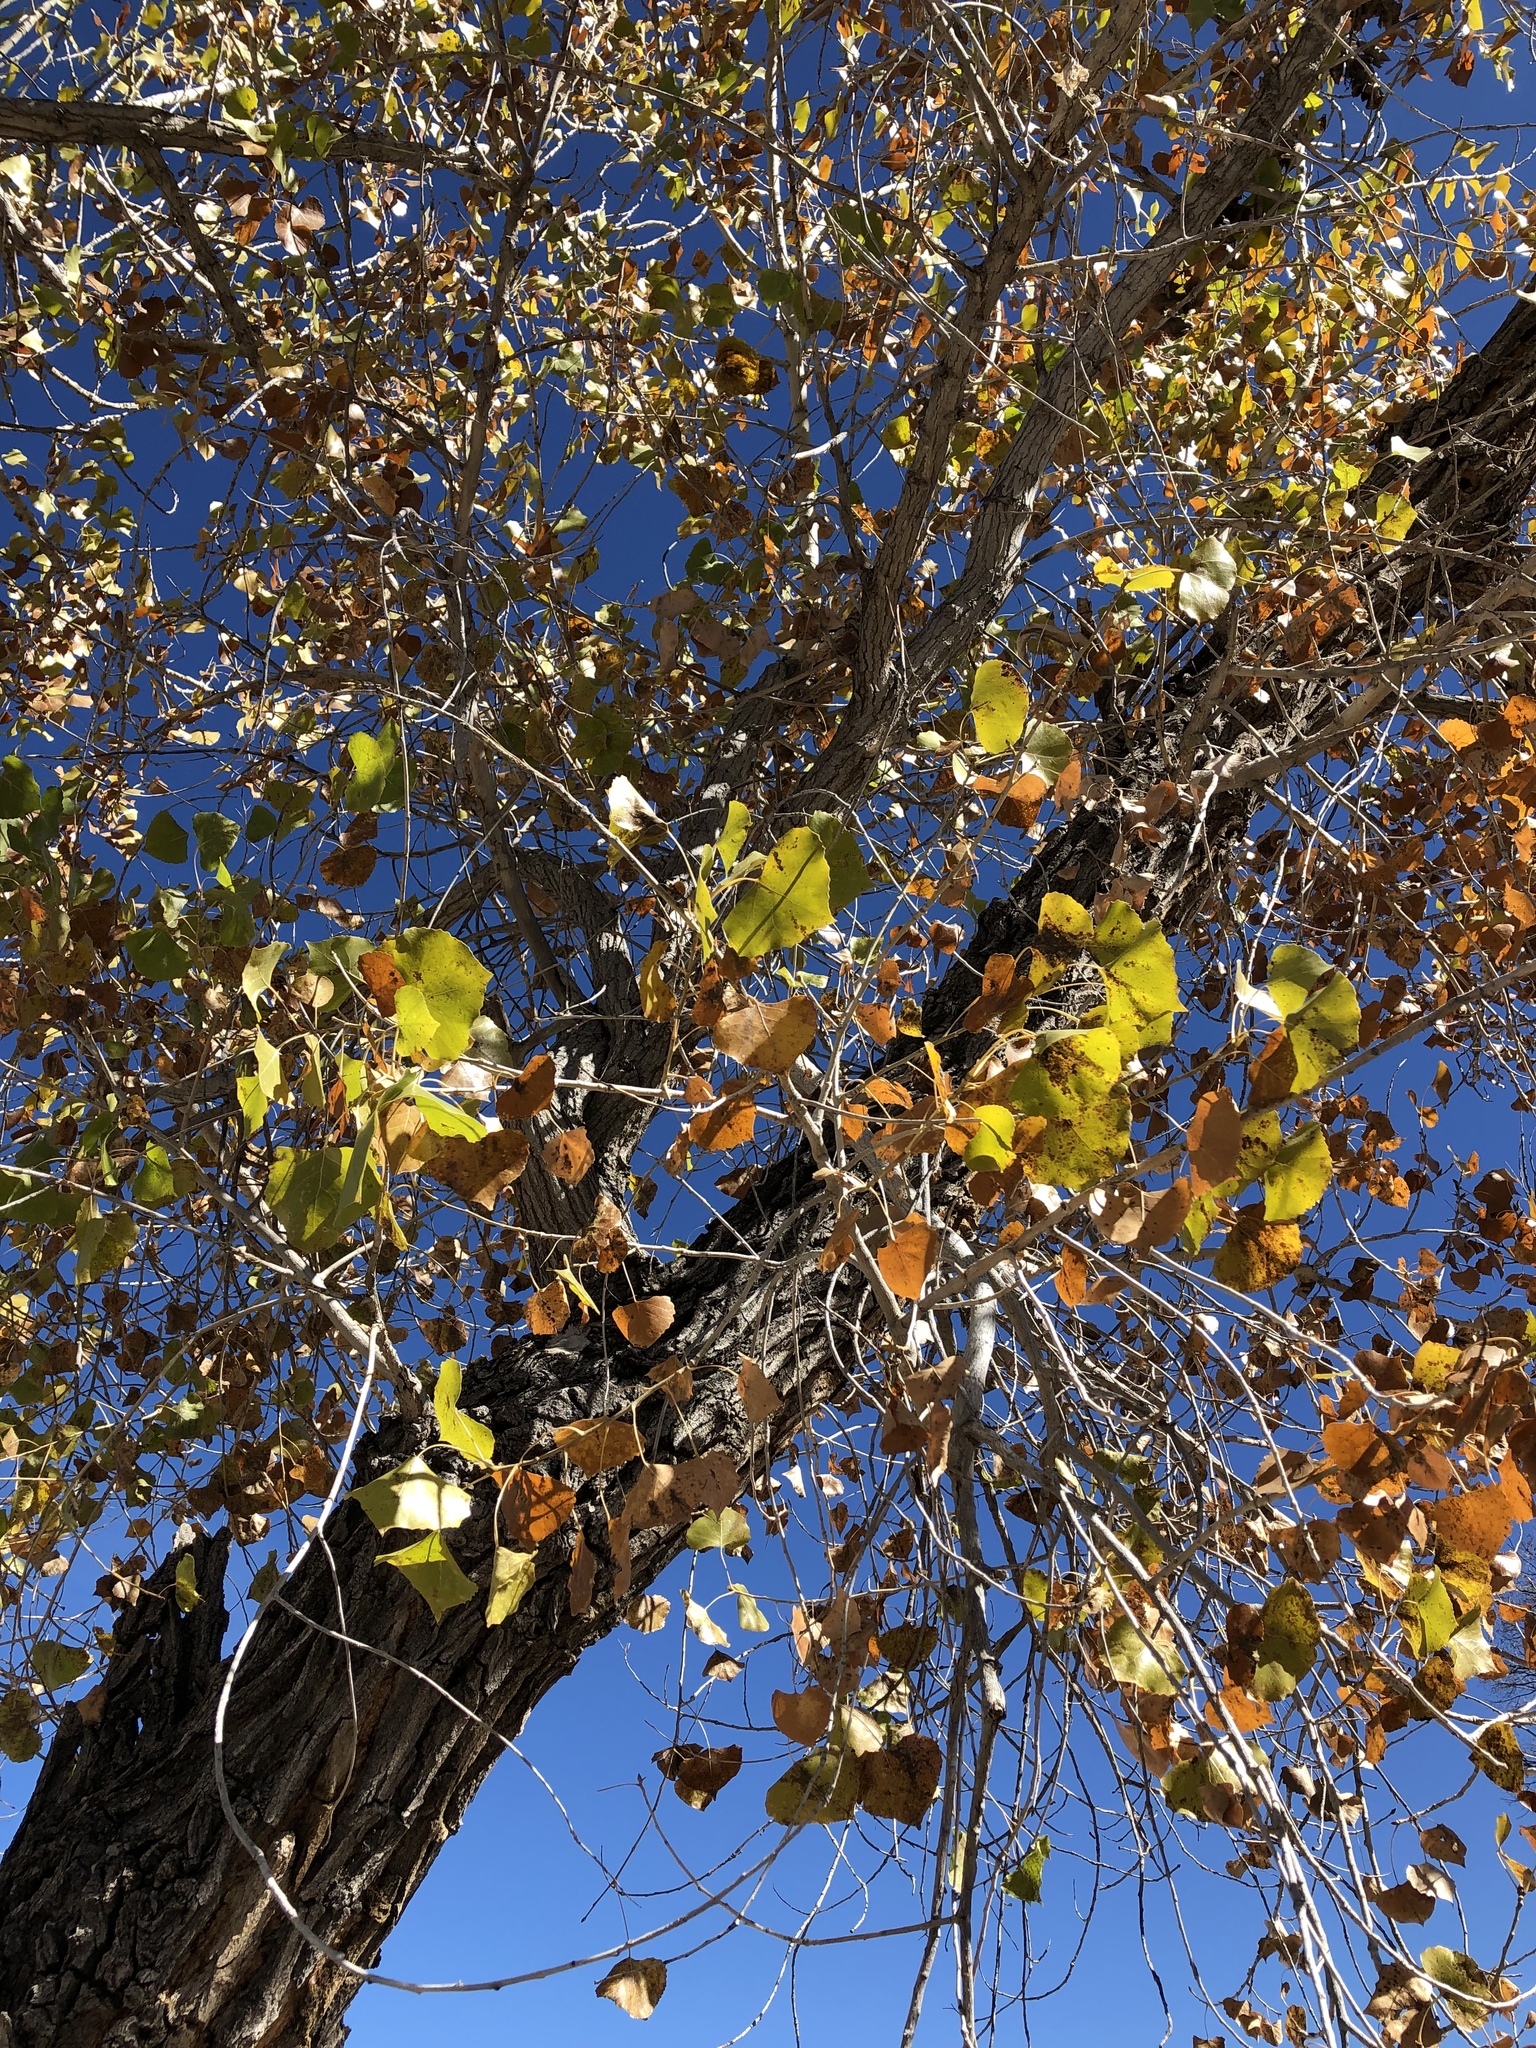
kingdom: Plantae
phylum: Tracheophyta
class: Magnoliopsida
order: Malpighiales
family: Salicaceae
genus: Populus
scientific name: Populus fremontii
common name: Fremont's cottonwood
